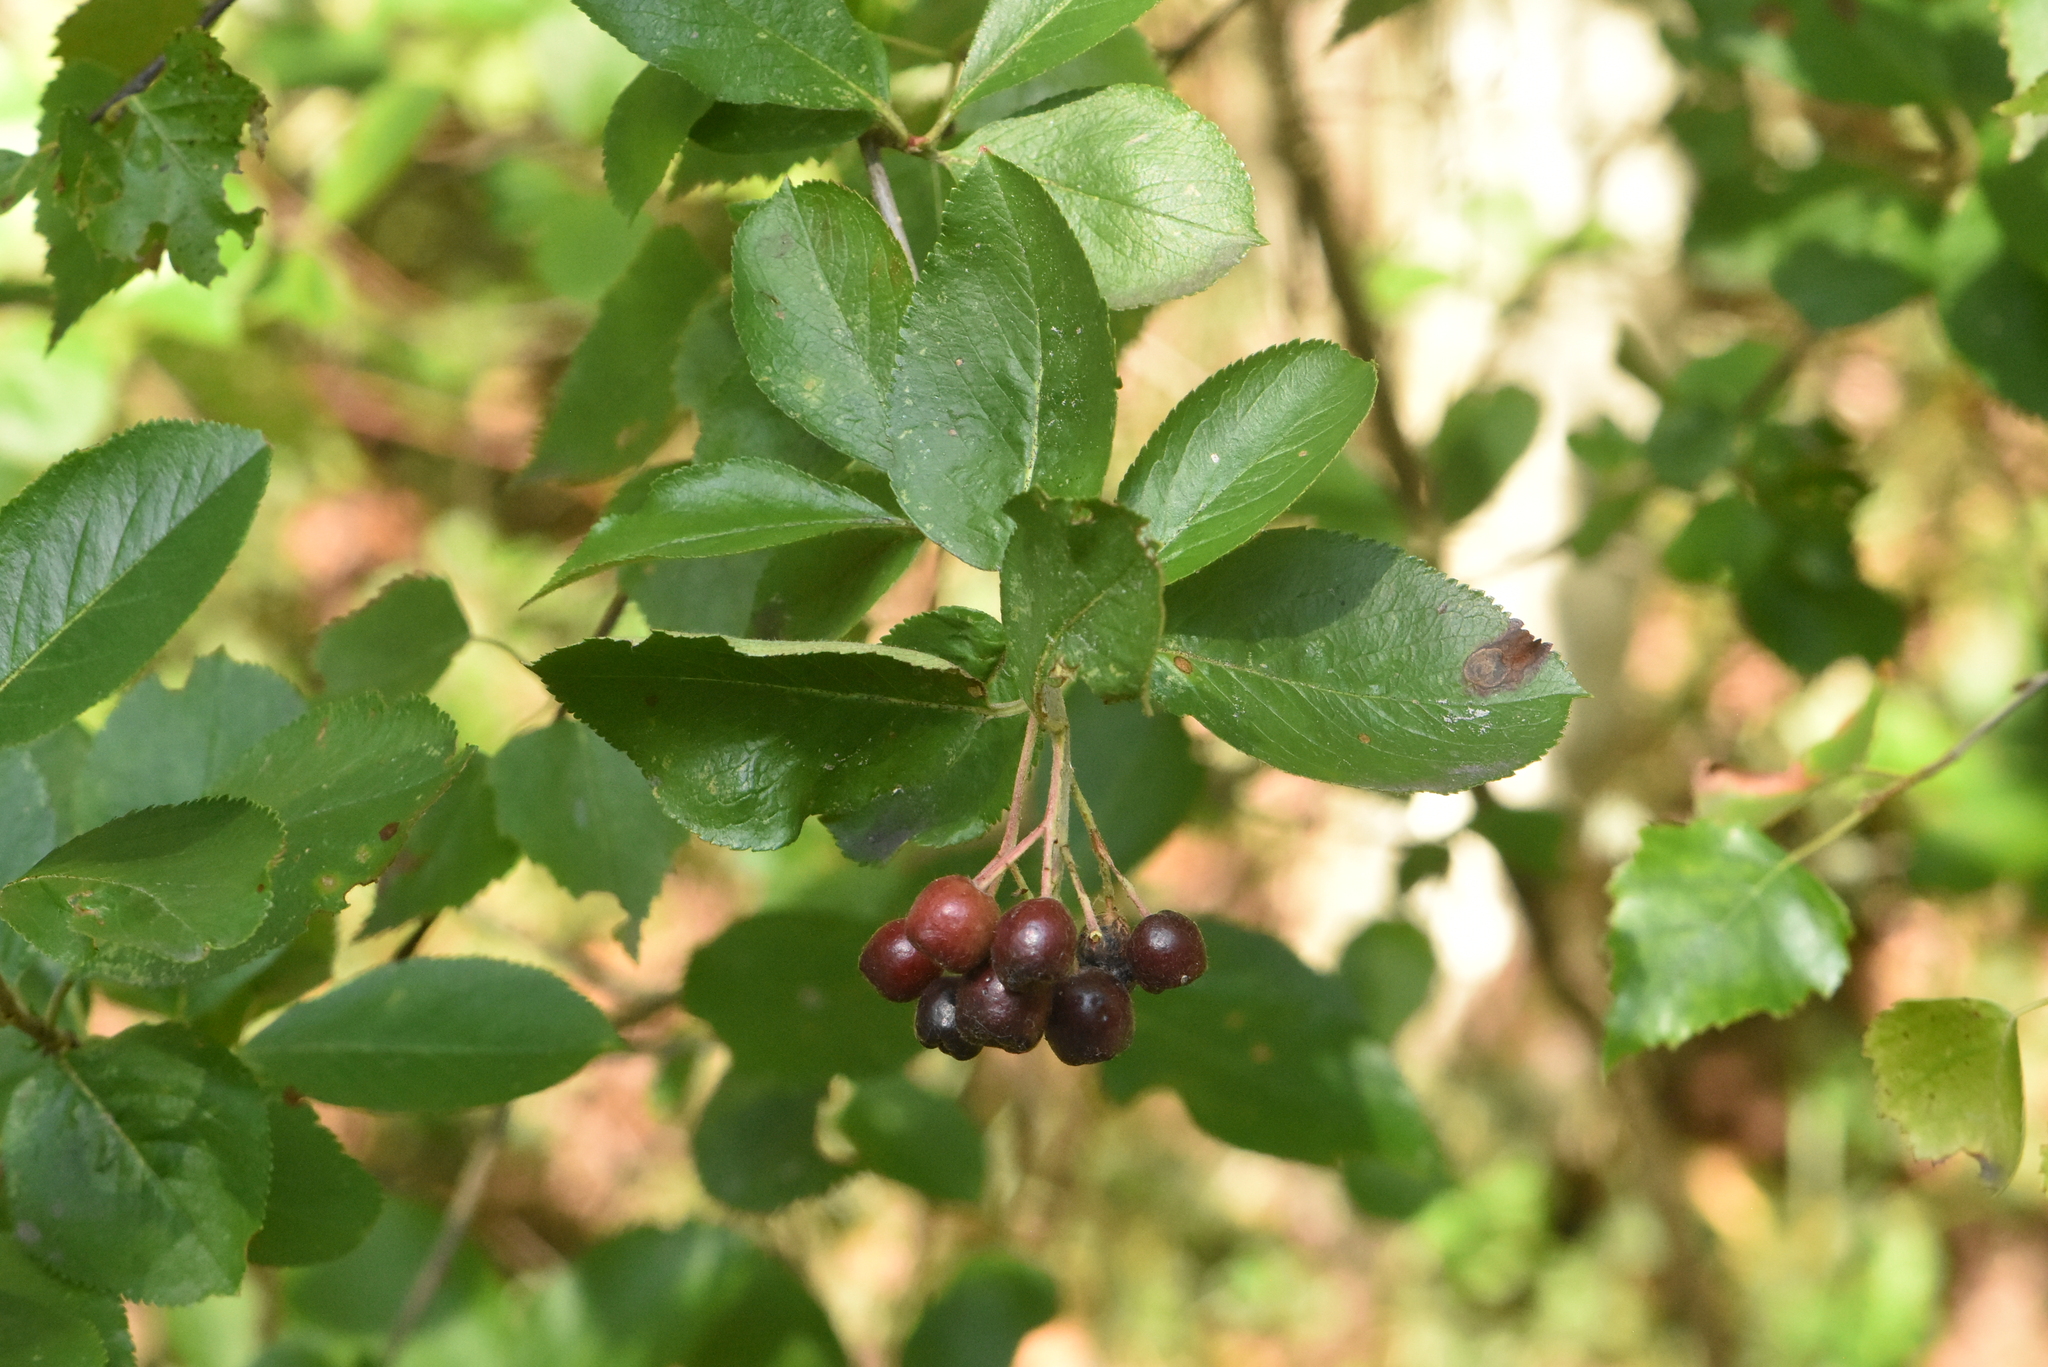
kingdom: Plantae
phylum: Tracheophyta
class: Magnoliopsida
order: Rosales
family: Rosaceae
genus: Sorbaronia
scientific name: Sorbaronia arsenii
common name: Arsène's mountain-ash
